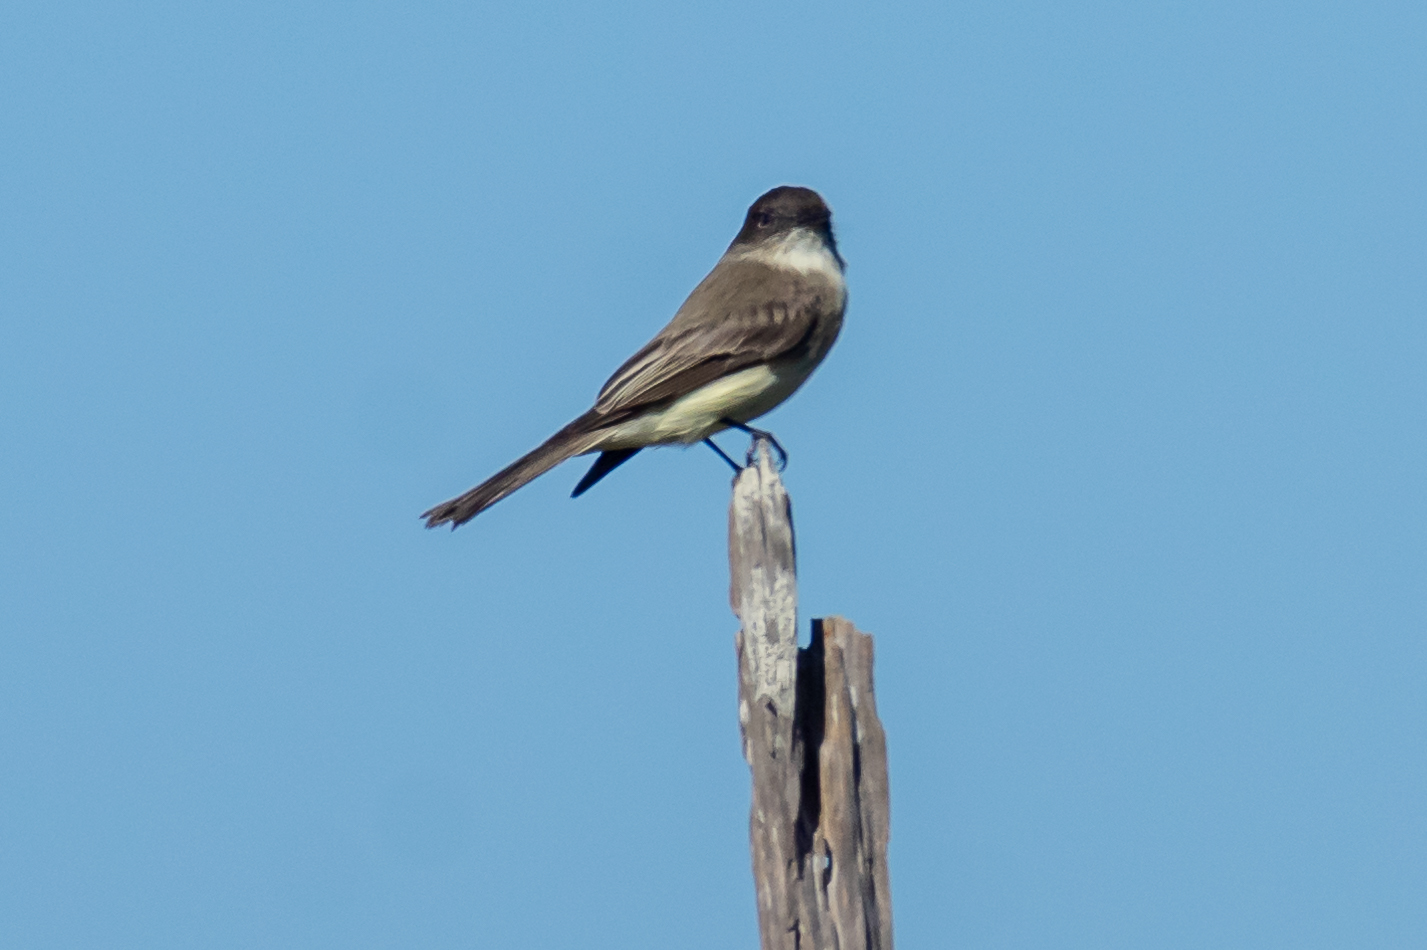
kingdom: Animalia
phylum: Chordata
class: Aves
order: Passeriformes
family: Tyrannidae
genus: Sayornis
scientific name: Sayornis phoebe
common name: Eastern phoebe
